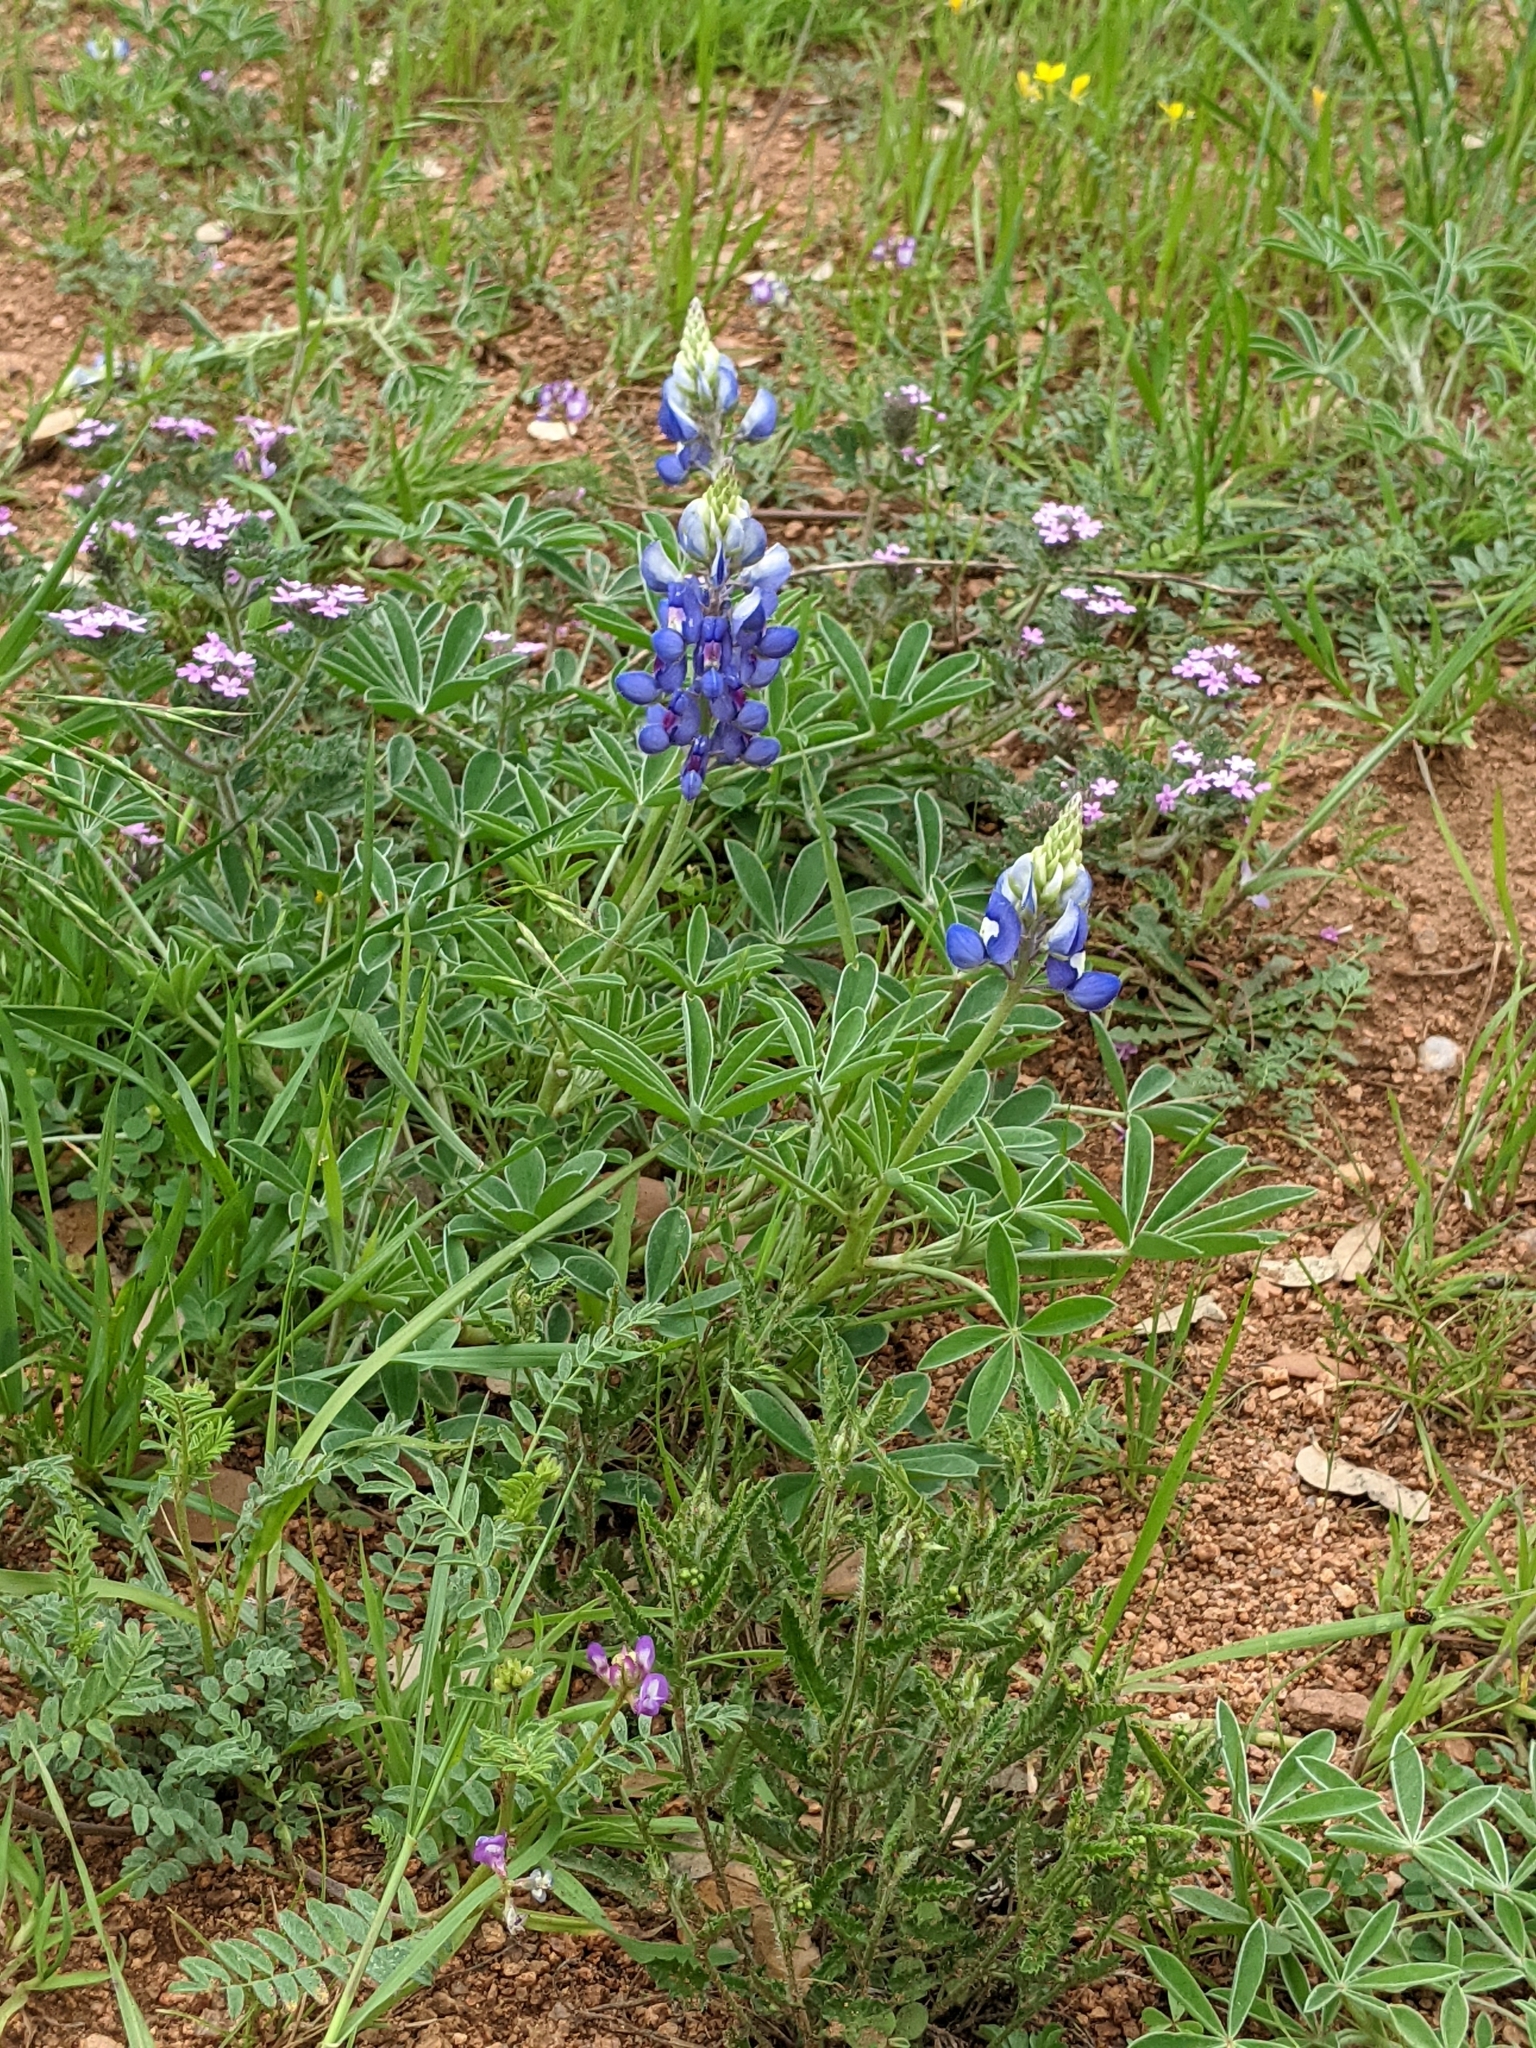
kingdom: Plantae
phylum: Tracheophyta
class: Magnoliopsida
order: Fabales
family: Fabaceae
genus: Lupinus
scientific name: Lupinus texensis
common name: Texas bluebonnet
